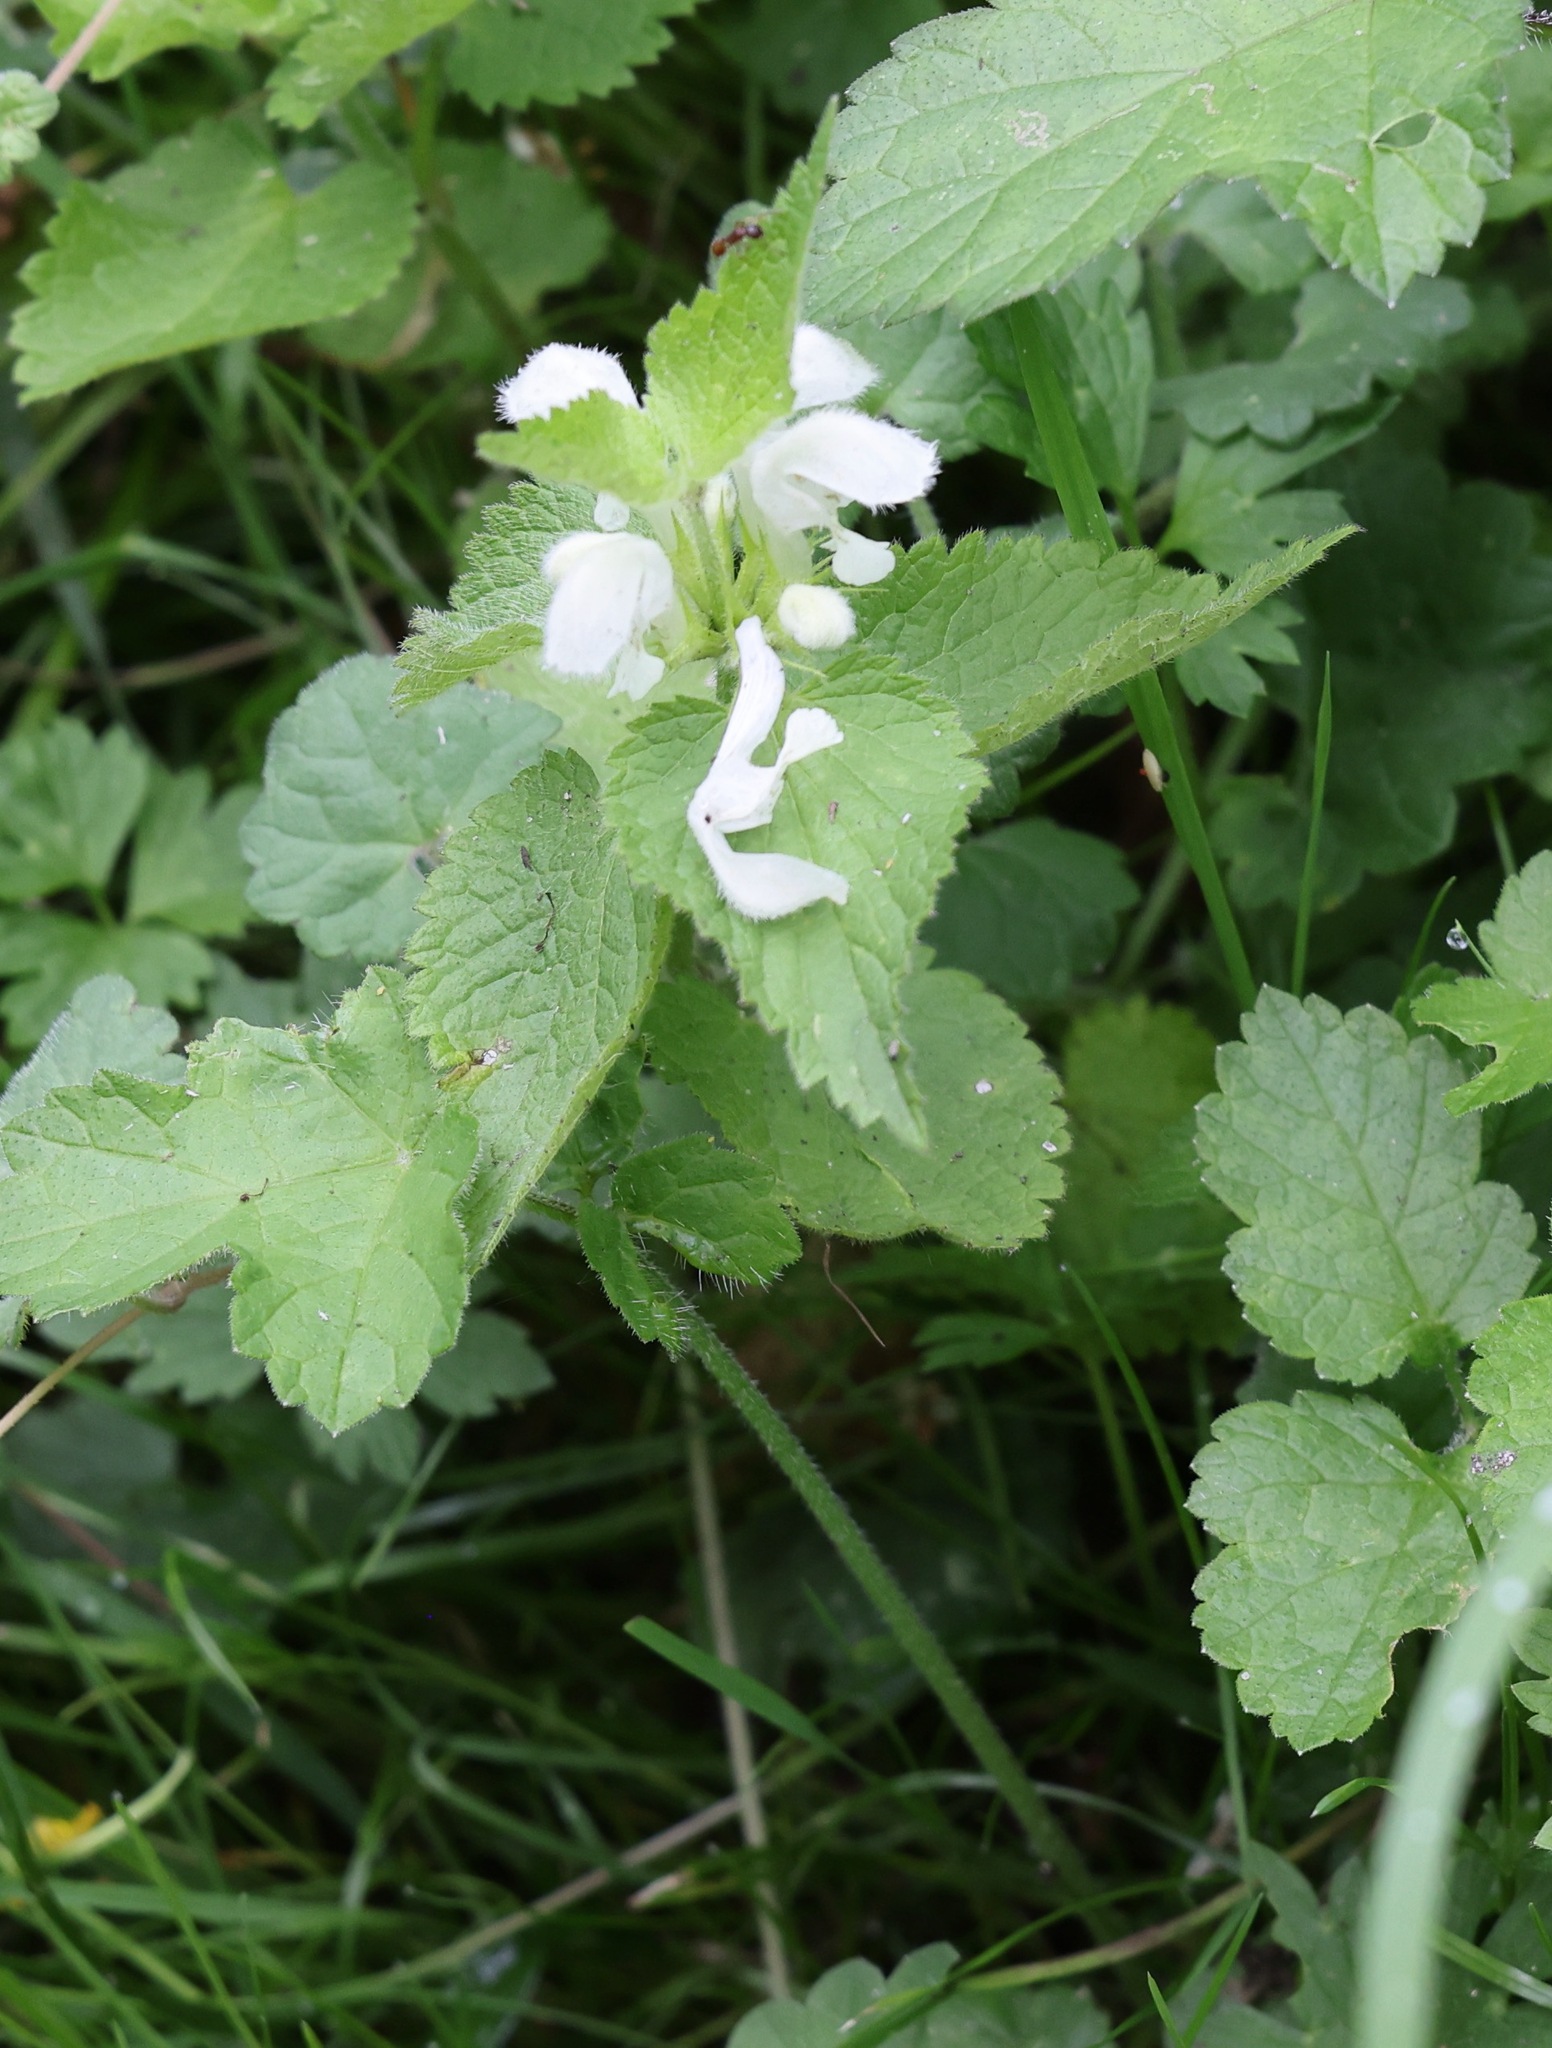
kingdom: Plantae
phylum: Tracheophyta
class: Magnoliopsida
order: Lamiales
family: Lamiaceae
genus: Lamium
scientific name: Lamium album
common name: White dead-nettle
